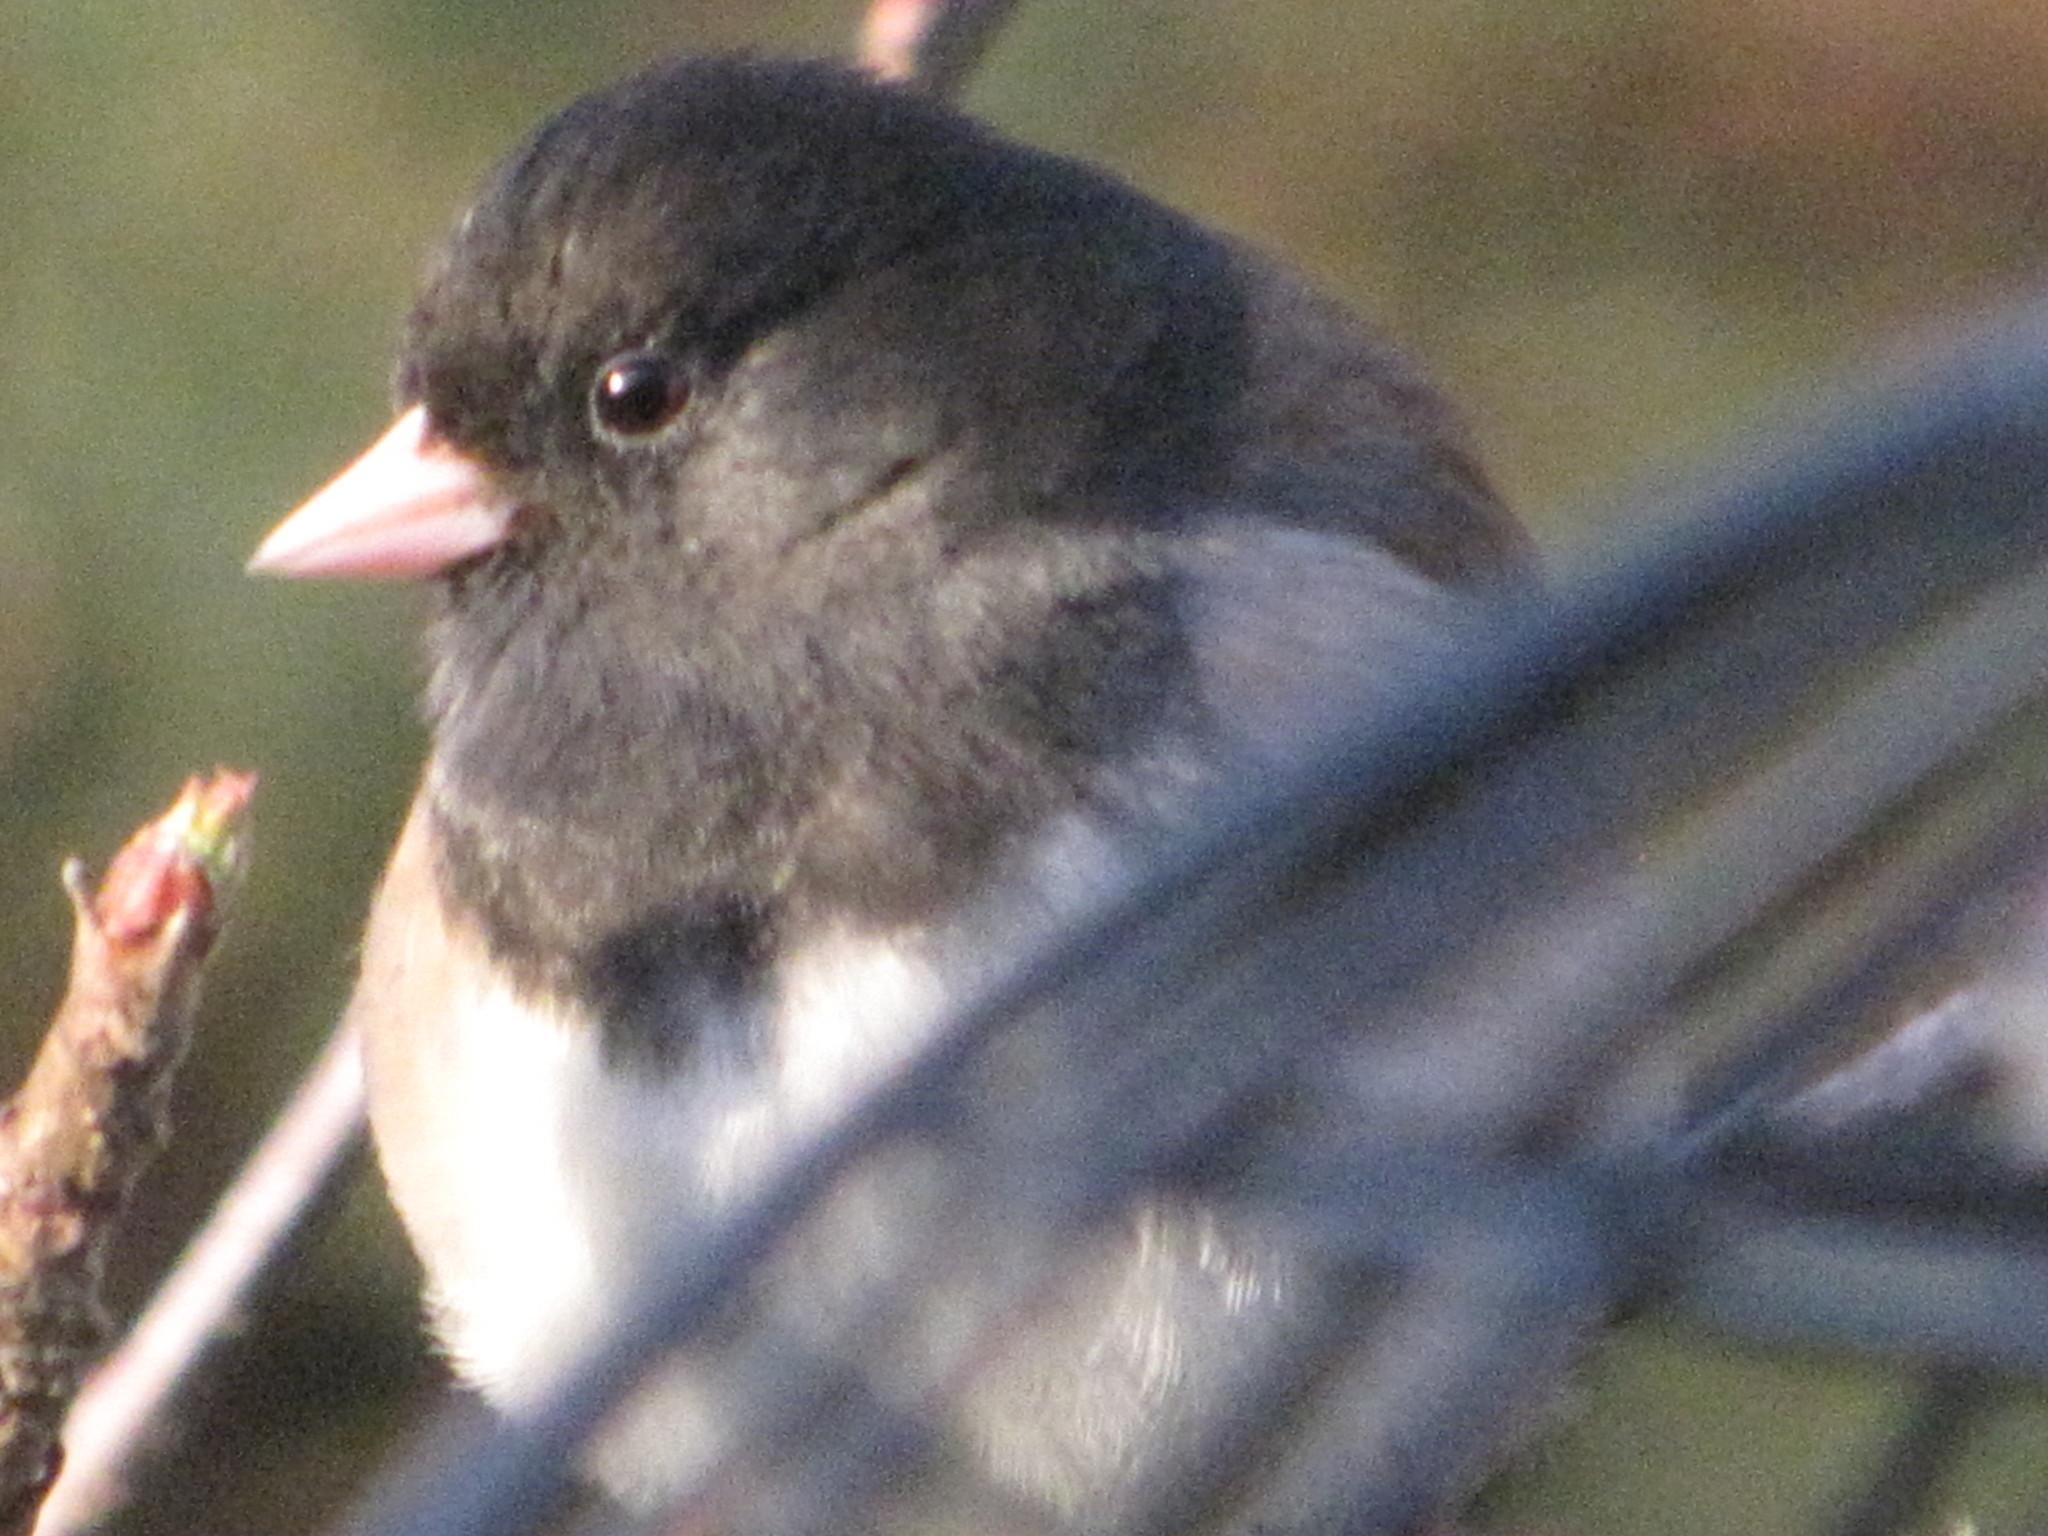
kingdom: Animalia
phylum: Chordata
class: Aves
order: Passeriformes
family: Passerellidae
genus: Junco
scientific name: Junco hyemalis
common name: Dark-eyed junco
